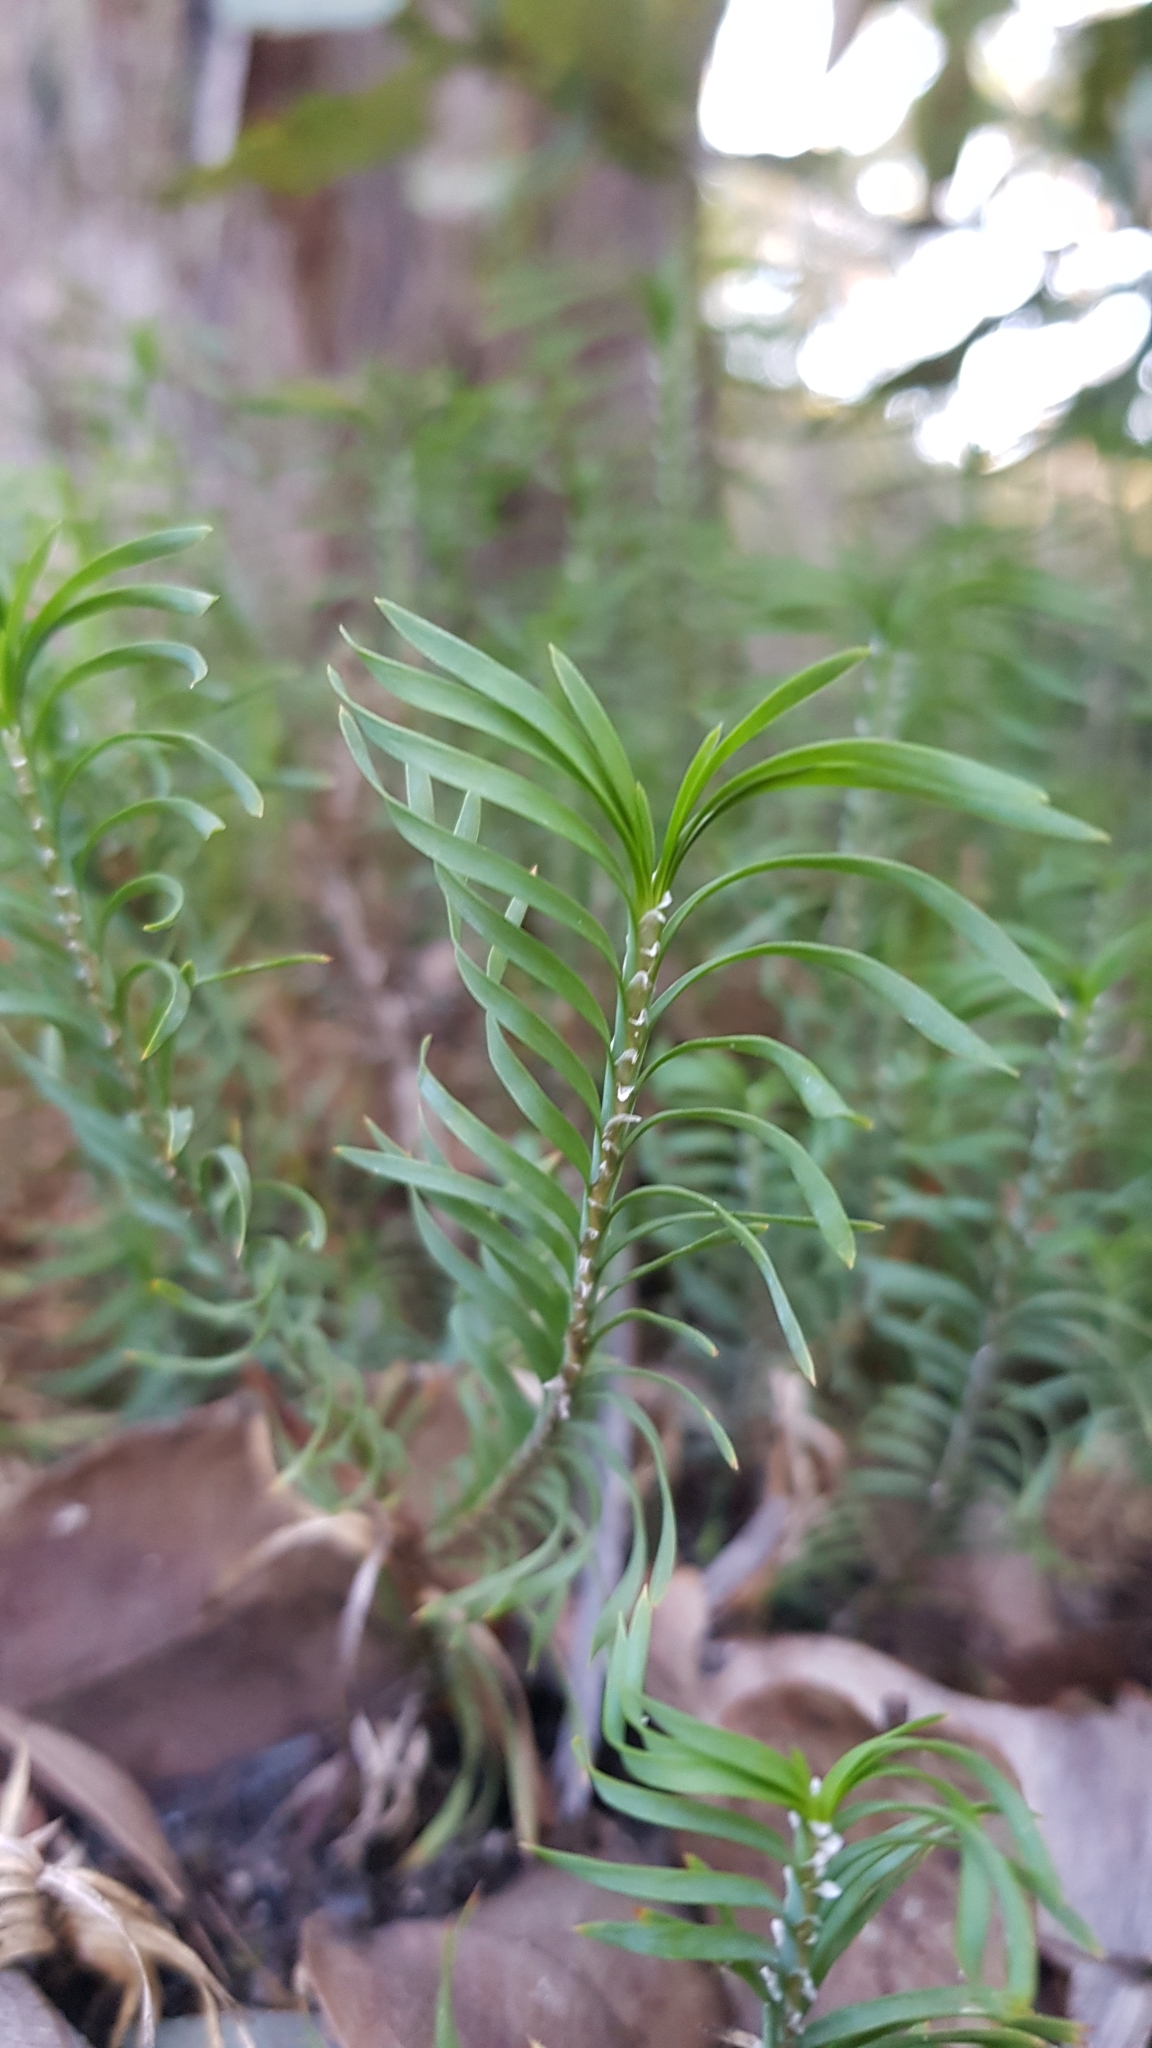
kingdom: Plantae
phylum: Tracheophyta
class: Liliopsida
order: Asparagales
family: Asparagaceae
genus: Lomandra
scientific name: Lomandra obliqua
